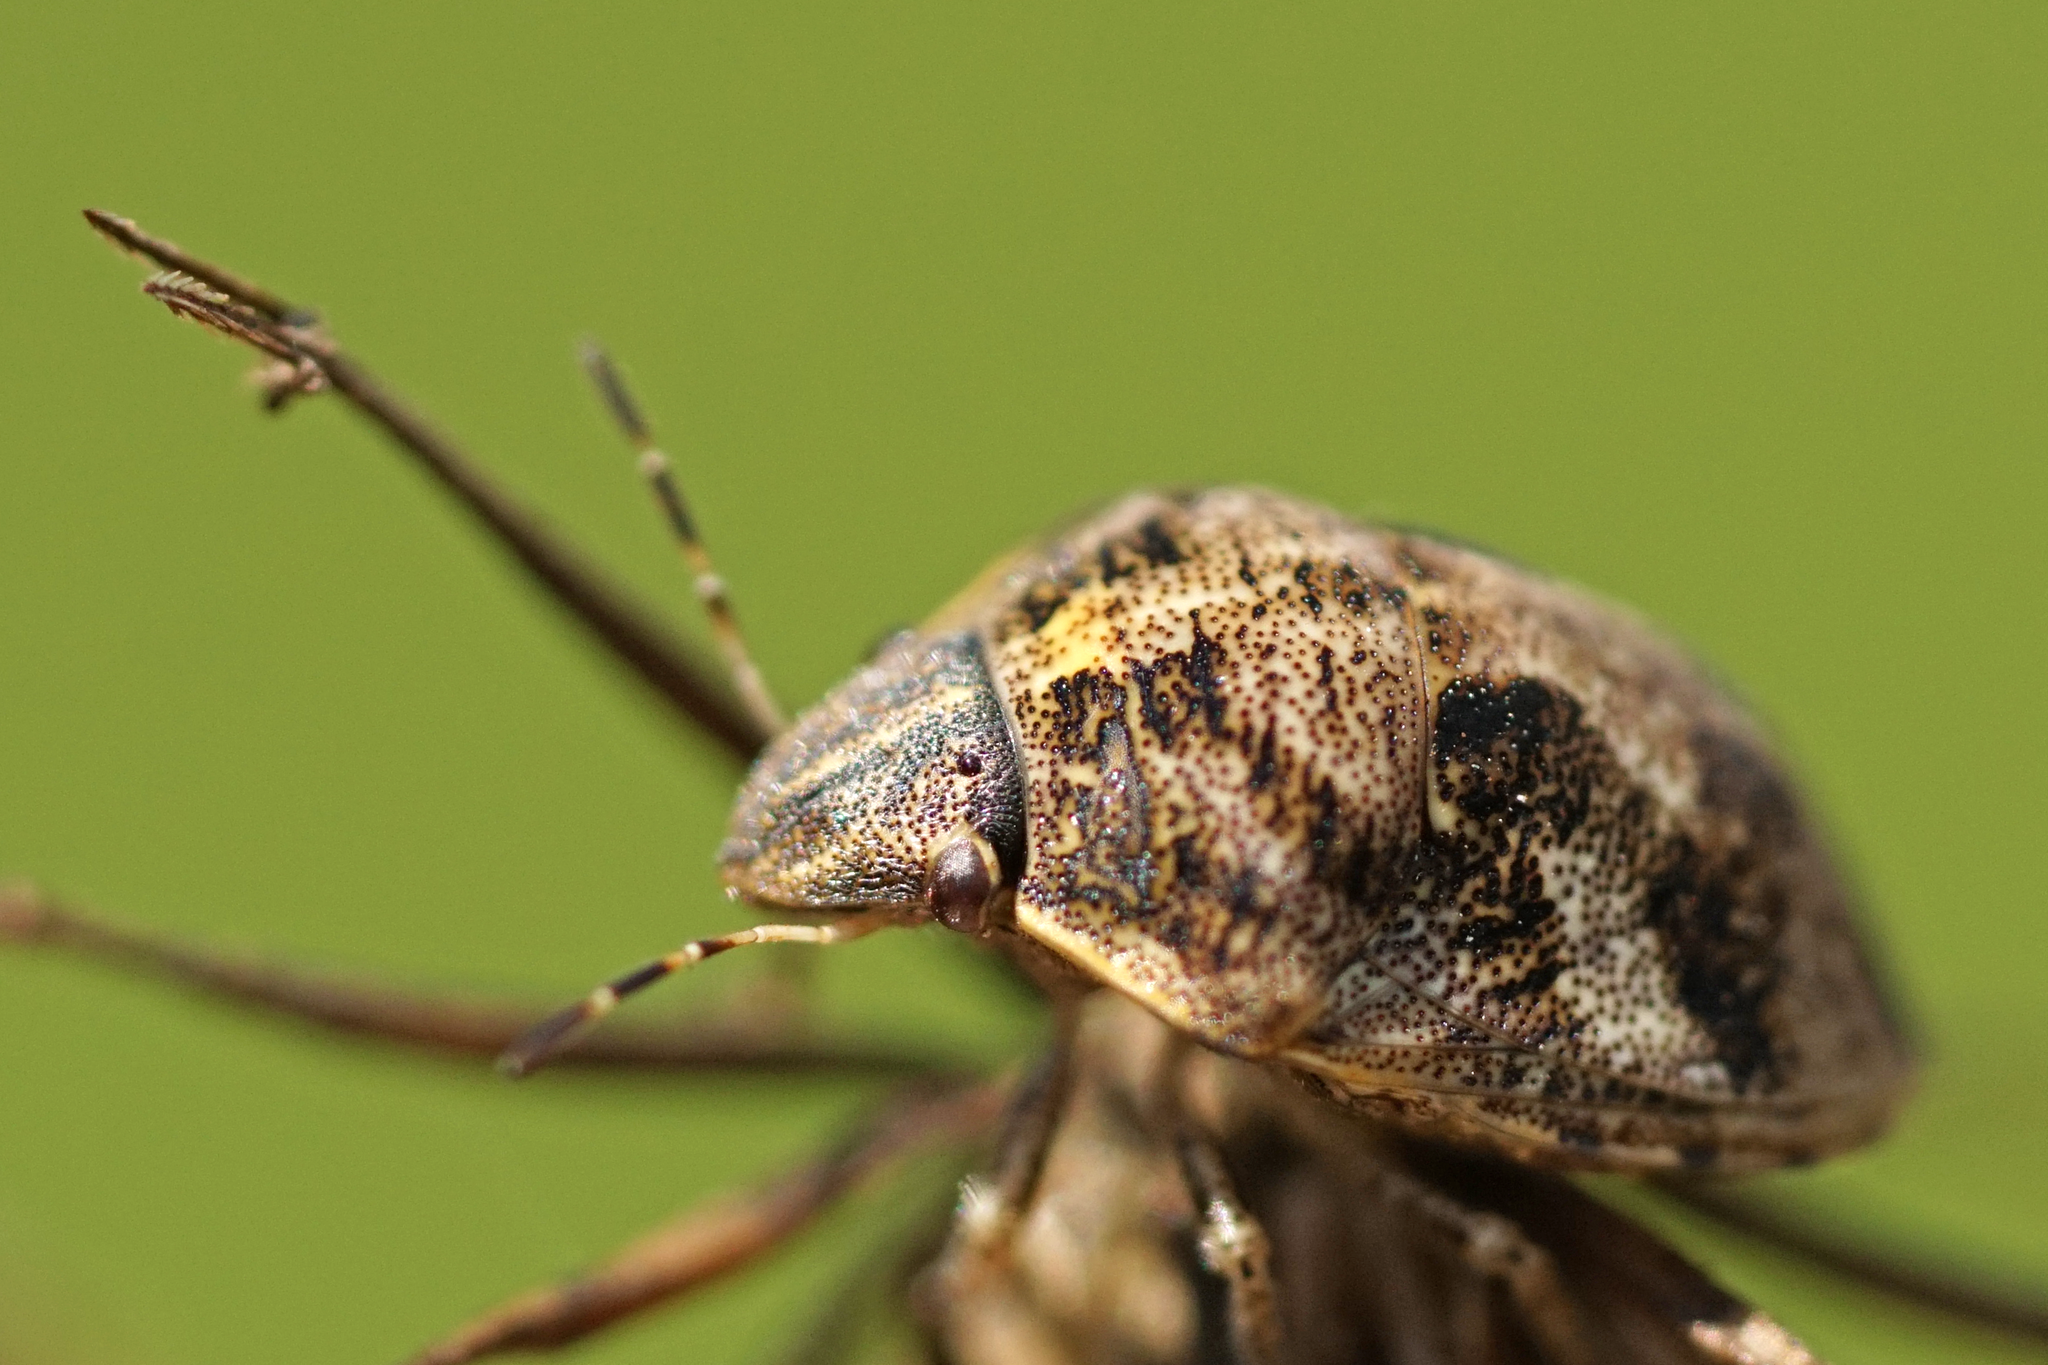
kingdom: Animalia
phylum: Arthropoda
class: Insecta
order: Hemiptera
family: Scutelleridae
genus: Sphyrocoris
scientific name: Sphyrocoris obliquus
